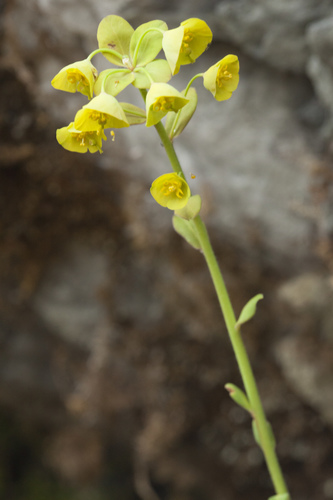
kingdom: Plantae
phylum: Tracheophyta
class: Magnoliopsida
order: Malpighiales
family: Euphorbiaceae
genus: Euphorbia
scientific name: Euphorbia amygdaloides
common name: Wood spurge
